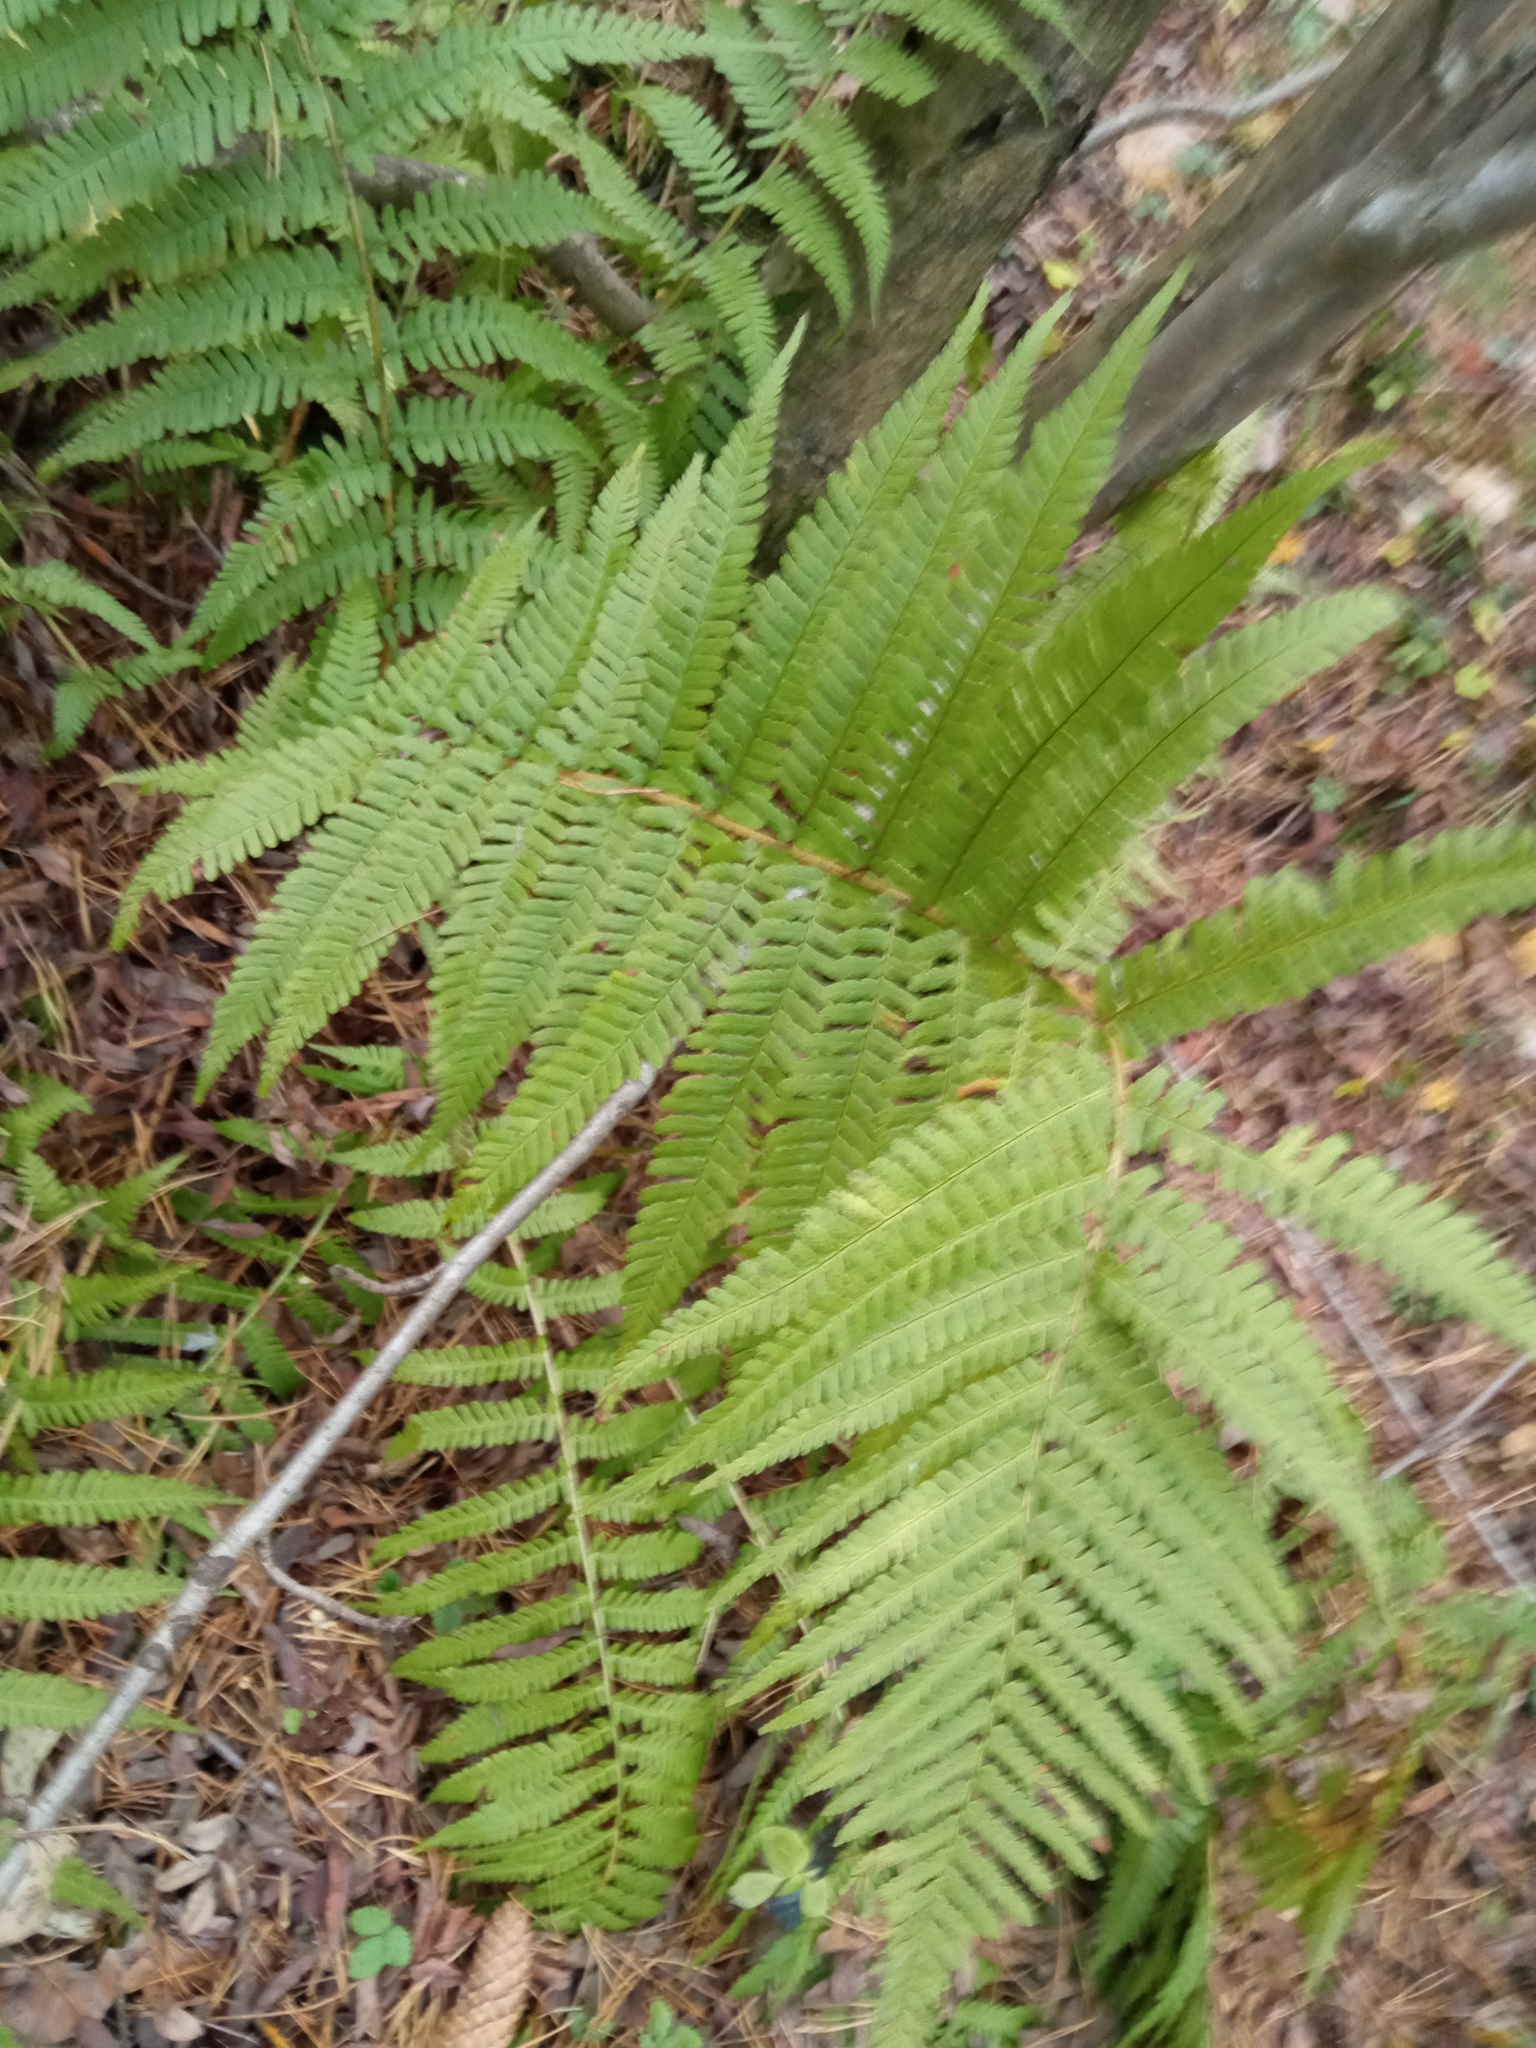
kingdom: Plantae
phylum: Tracheophyta
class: Polypodiopsida
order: Polypodiales
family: Dryopteridaceae
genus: Dryopteris
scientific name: Dryopteris filix-mas
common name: Male fern
